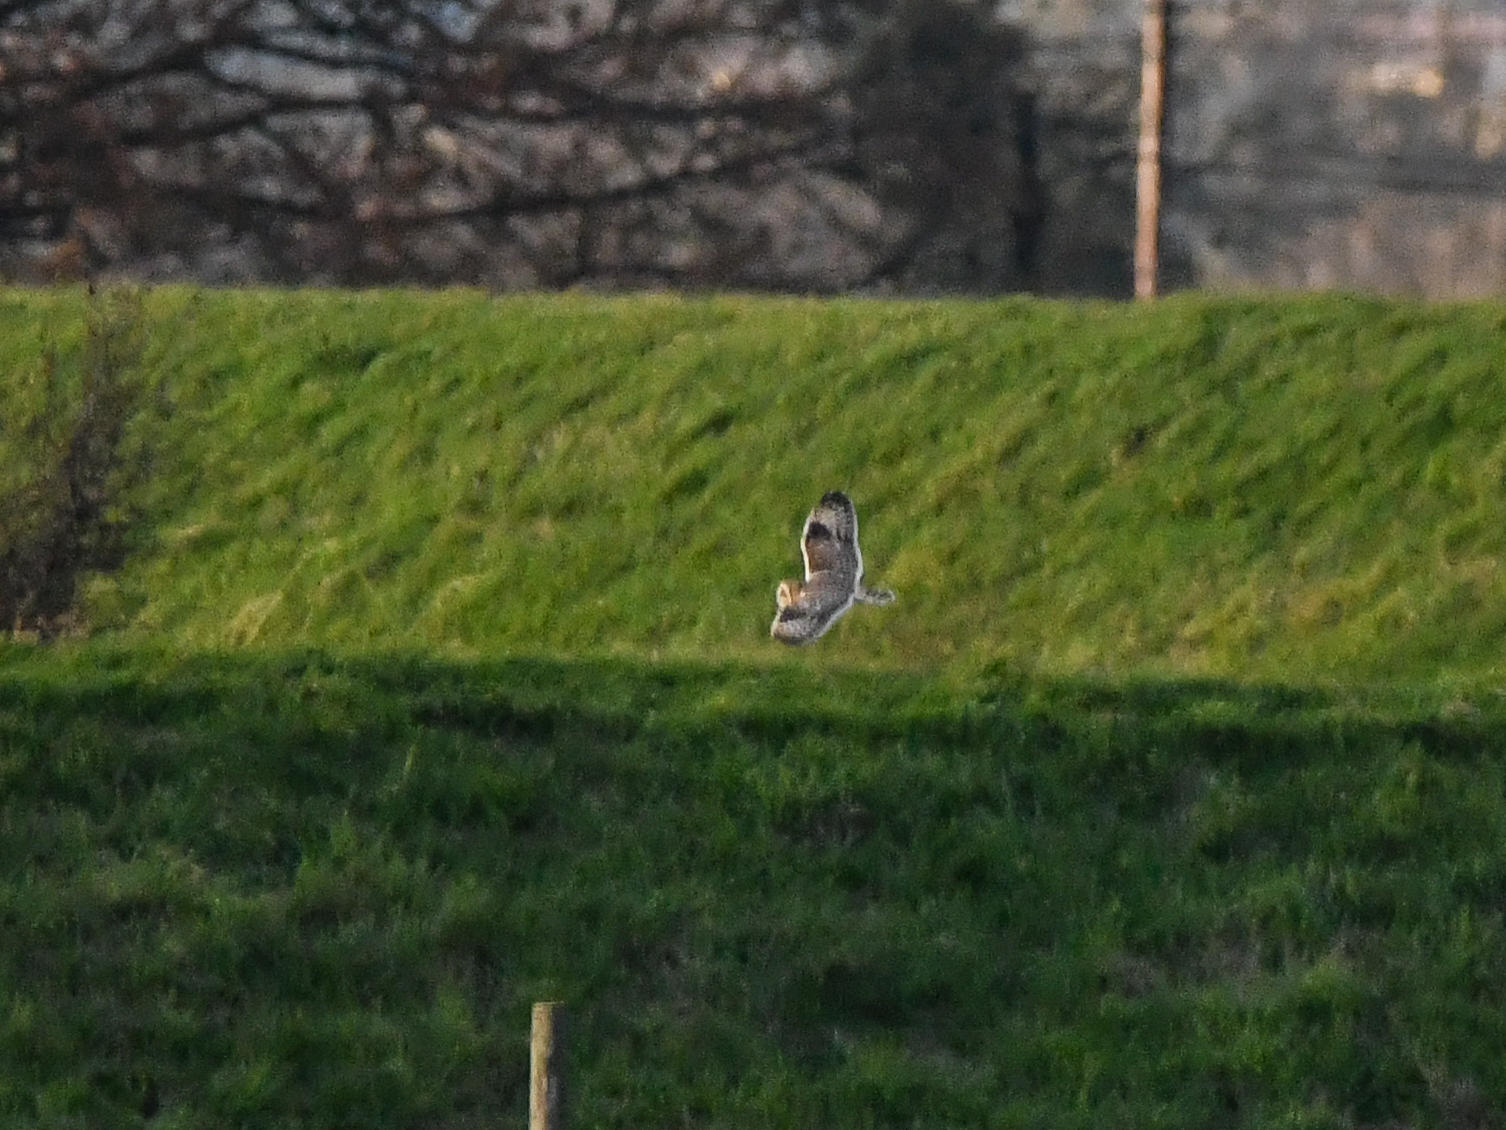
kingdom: Animalia
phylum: Chordata
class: Aves
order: Strigiformes
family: Strigidae
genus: Asio
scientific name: Asio flammeus
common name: Short-eared owl
